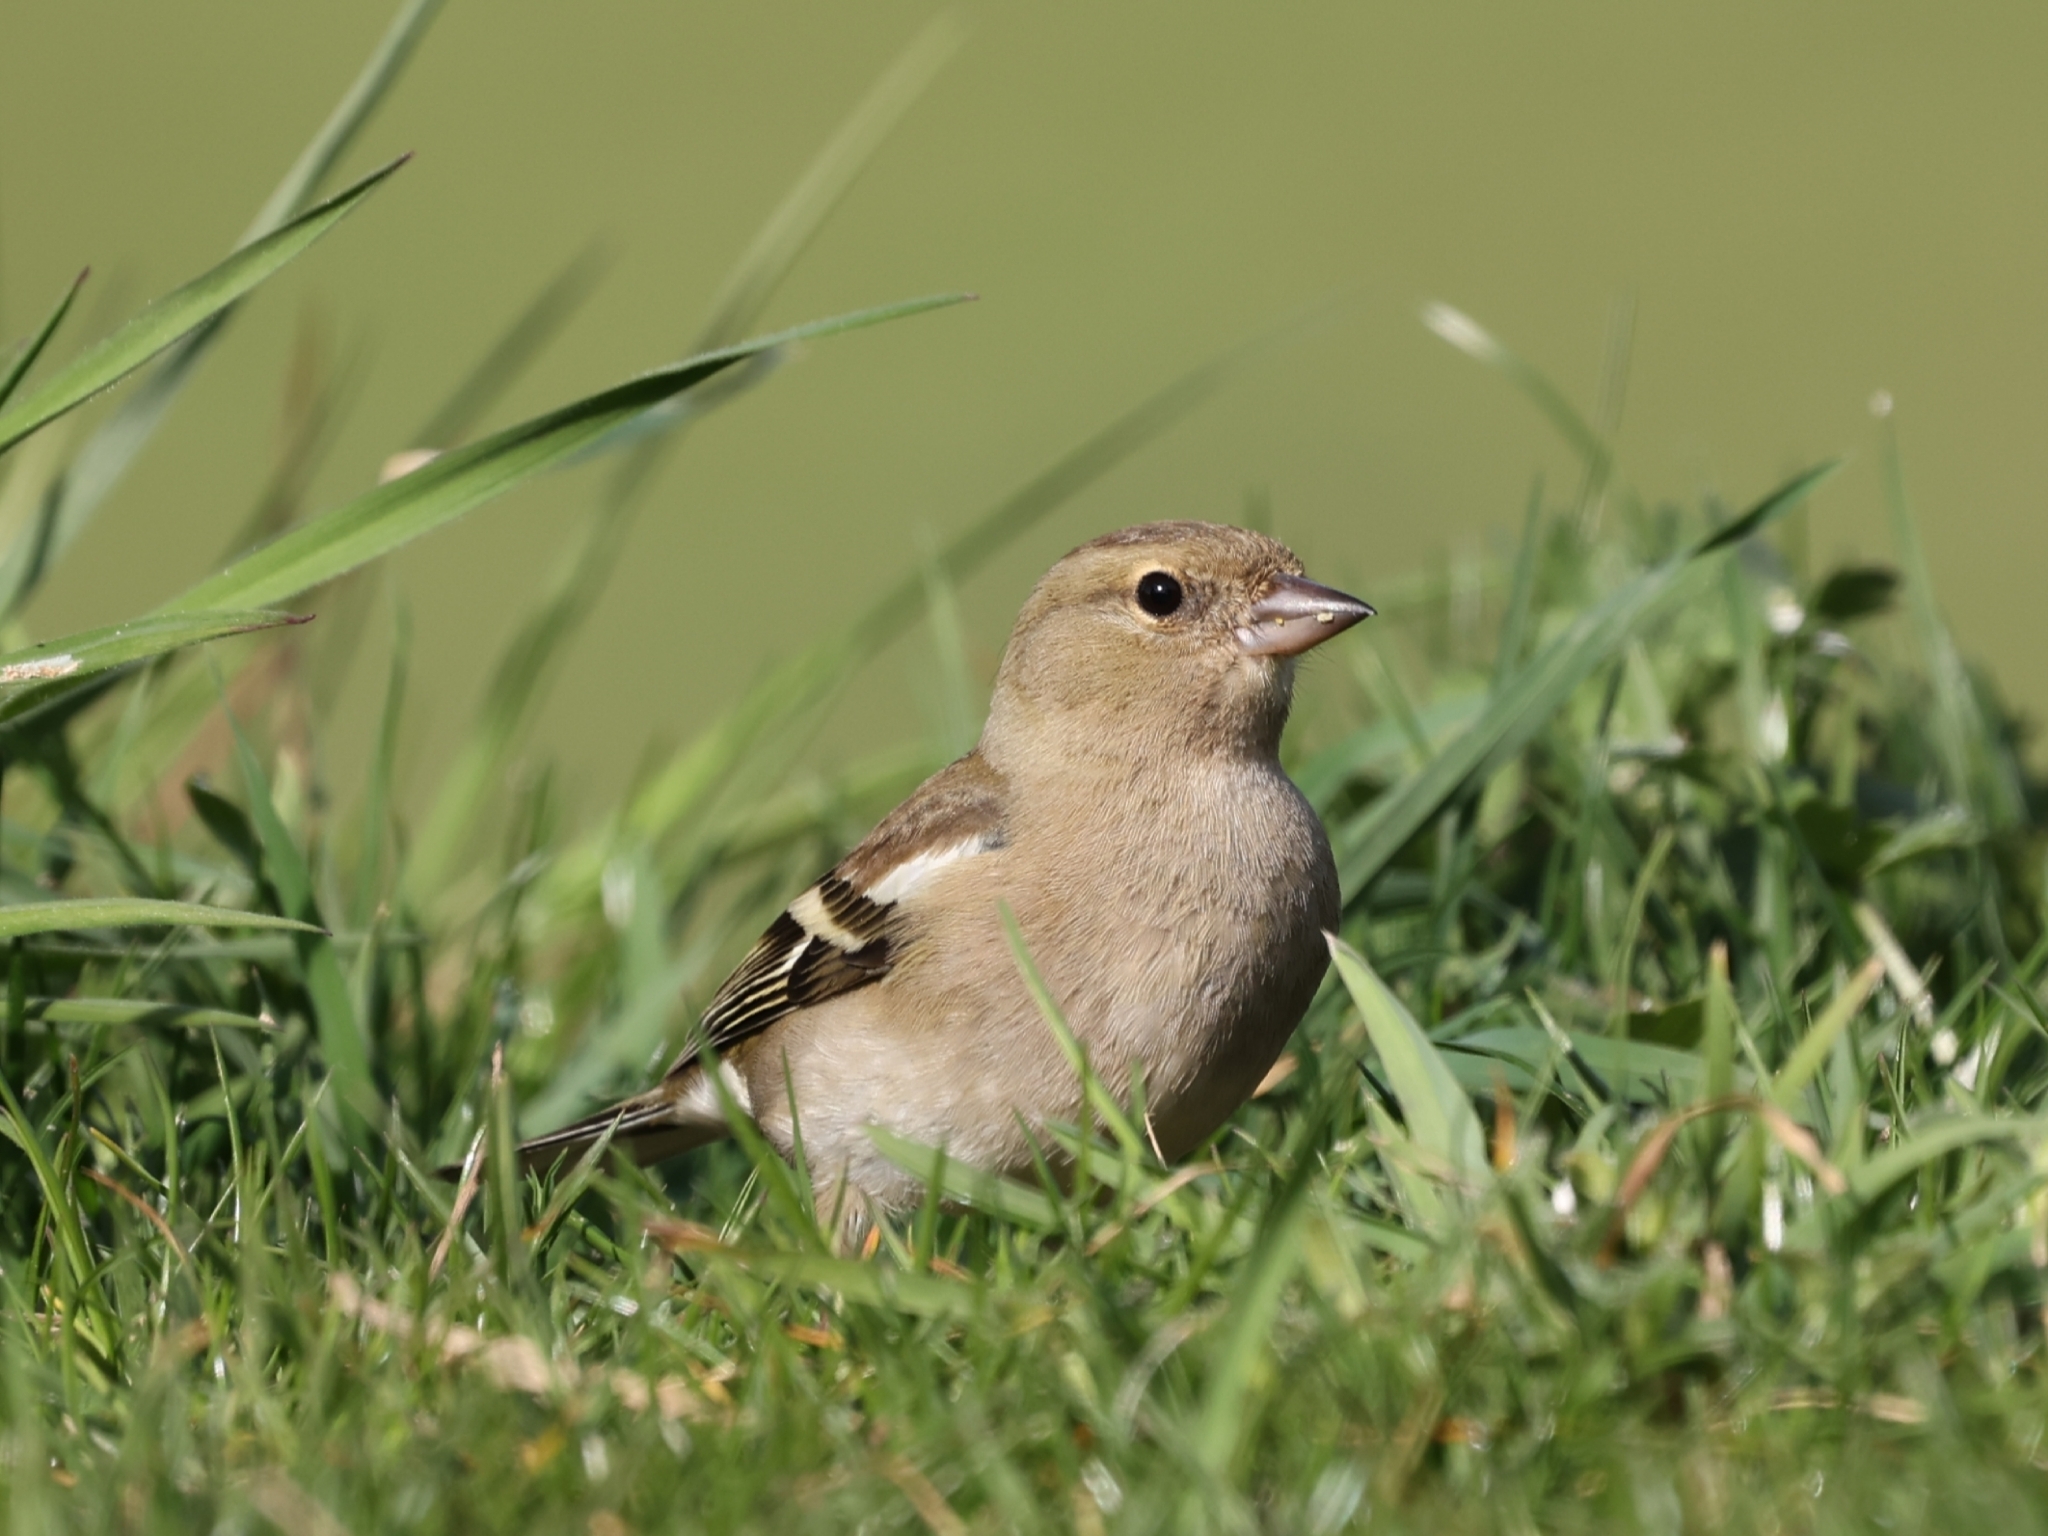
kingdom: Animalia
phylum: Chordata
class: Aves
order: Passeriformes
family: Fringillidae
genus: Fringilla
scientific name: Fringilla coelebs
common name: Common chaffinch
